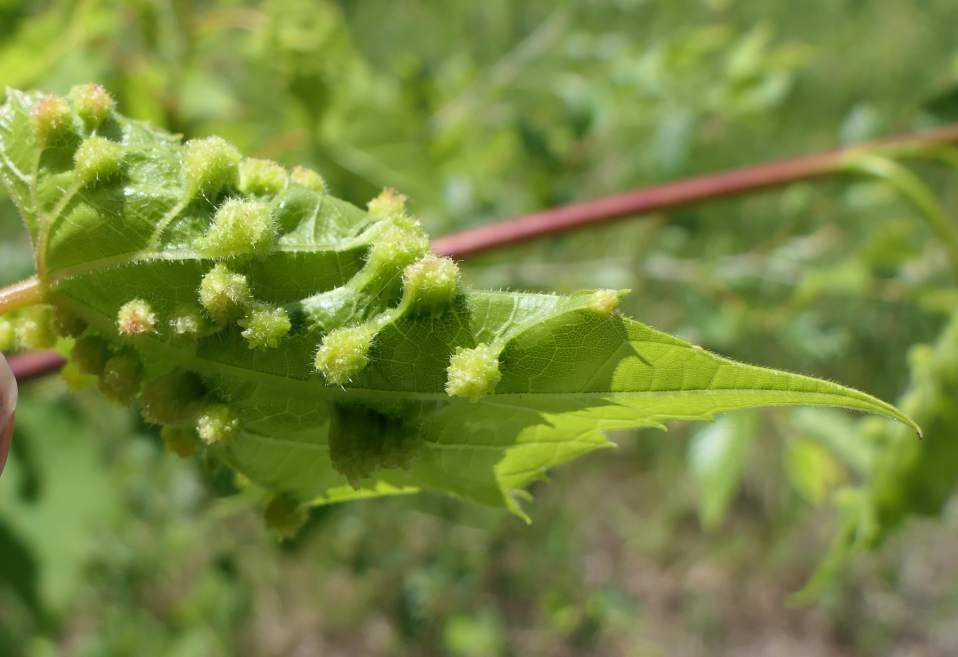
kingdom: Animalia
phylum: Arthropoda
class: Insecta
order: Hemiptera
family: Phylloxeridae
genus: Daktulosphaira
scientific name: Daktulosphaira vitifoliae
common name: Grape phylloxera
